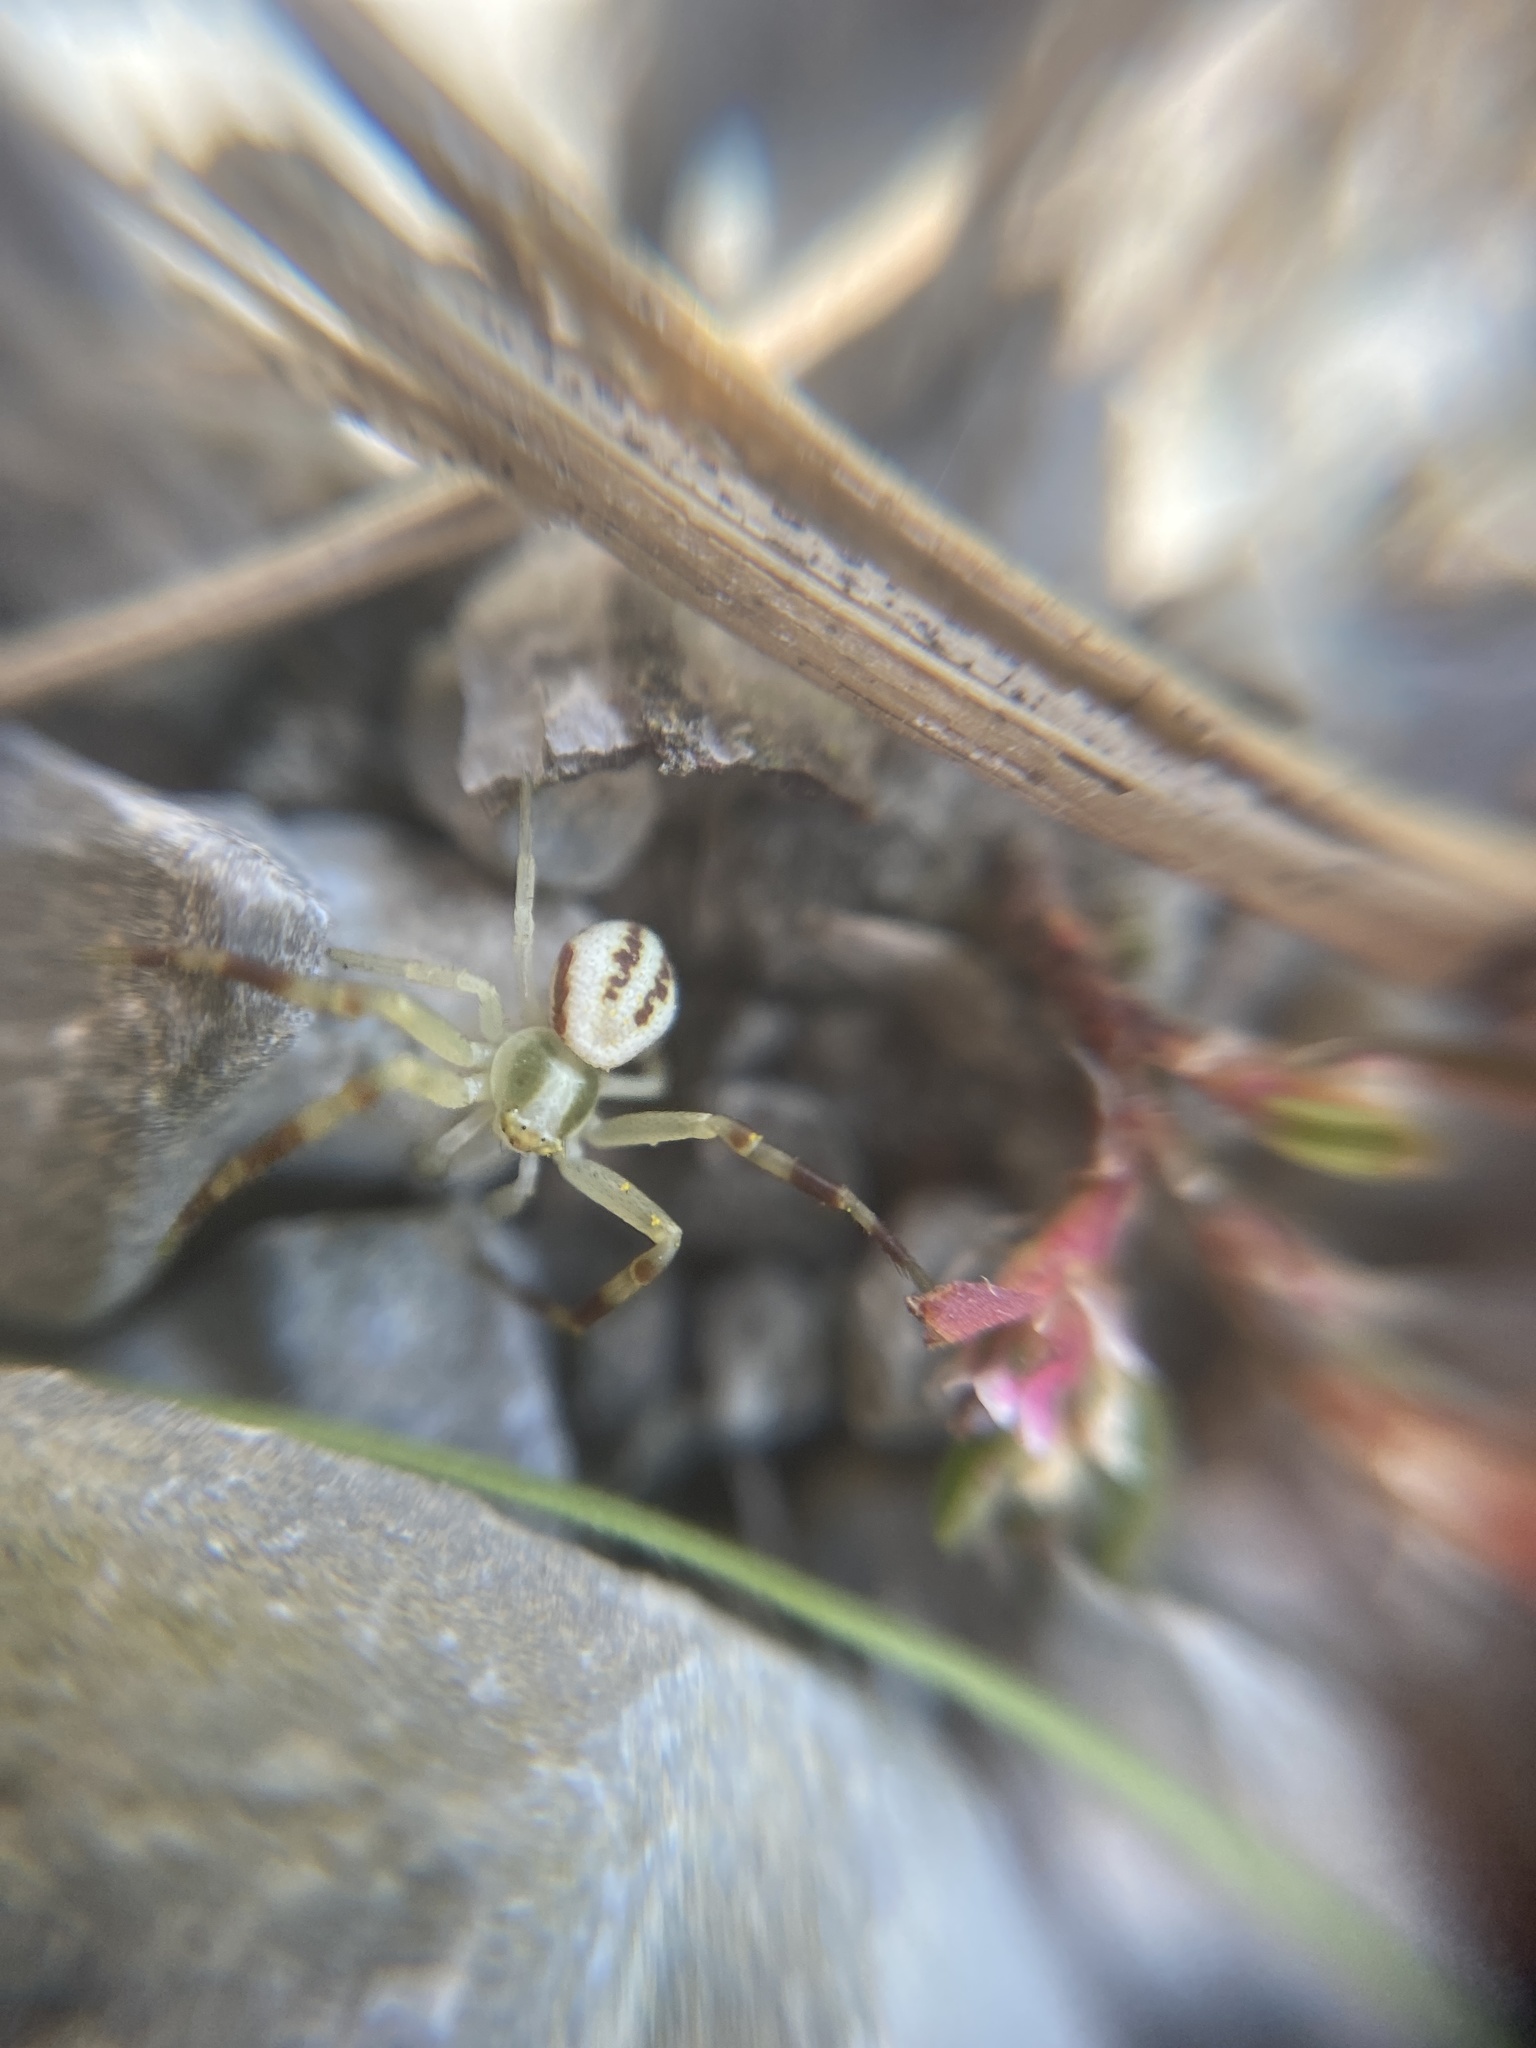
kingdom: Animalia
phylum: Arthropoda
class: Arachnida
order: Araneae
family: Thomisidae
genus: Misumena
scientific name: Misumena vatia
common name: Goldenrod crab spider
